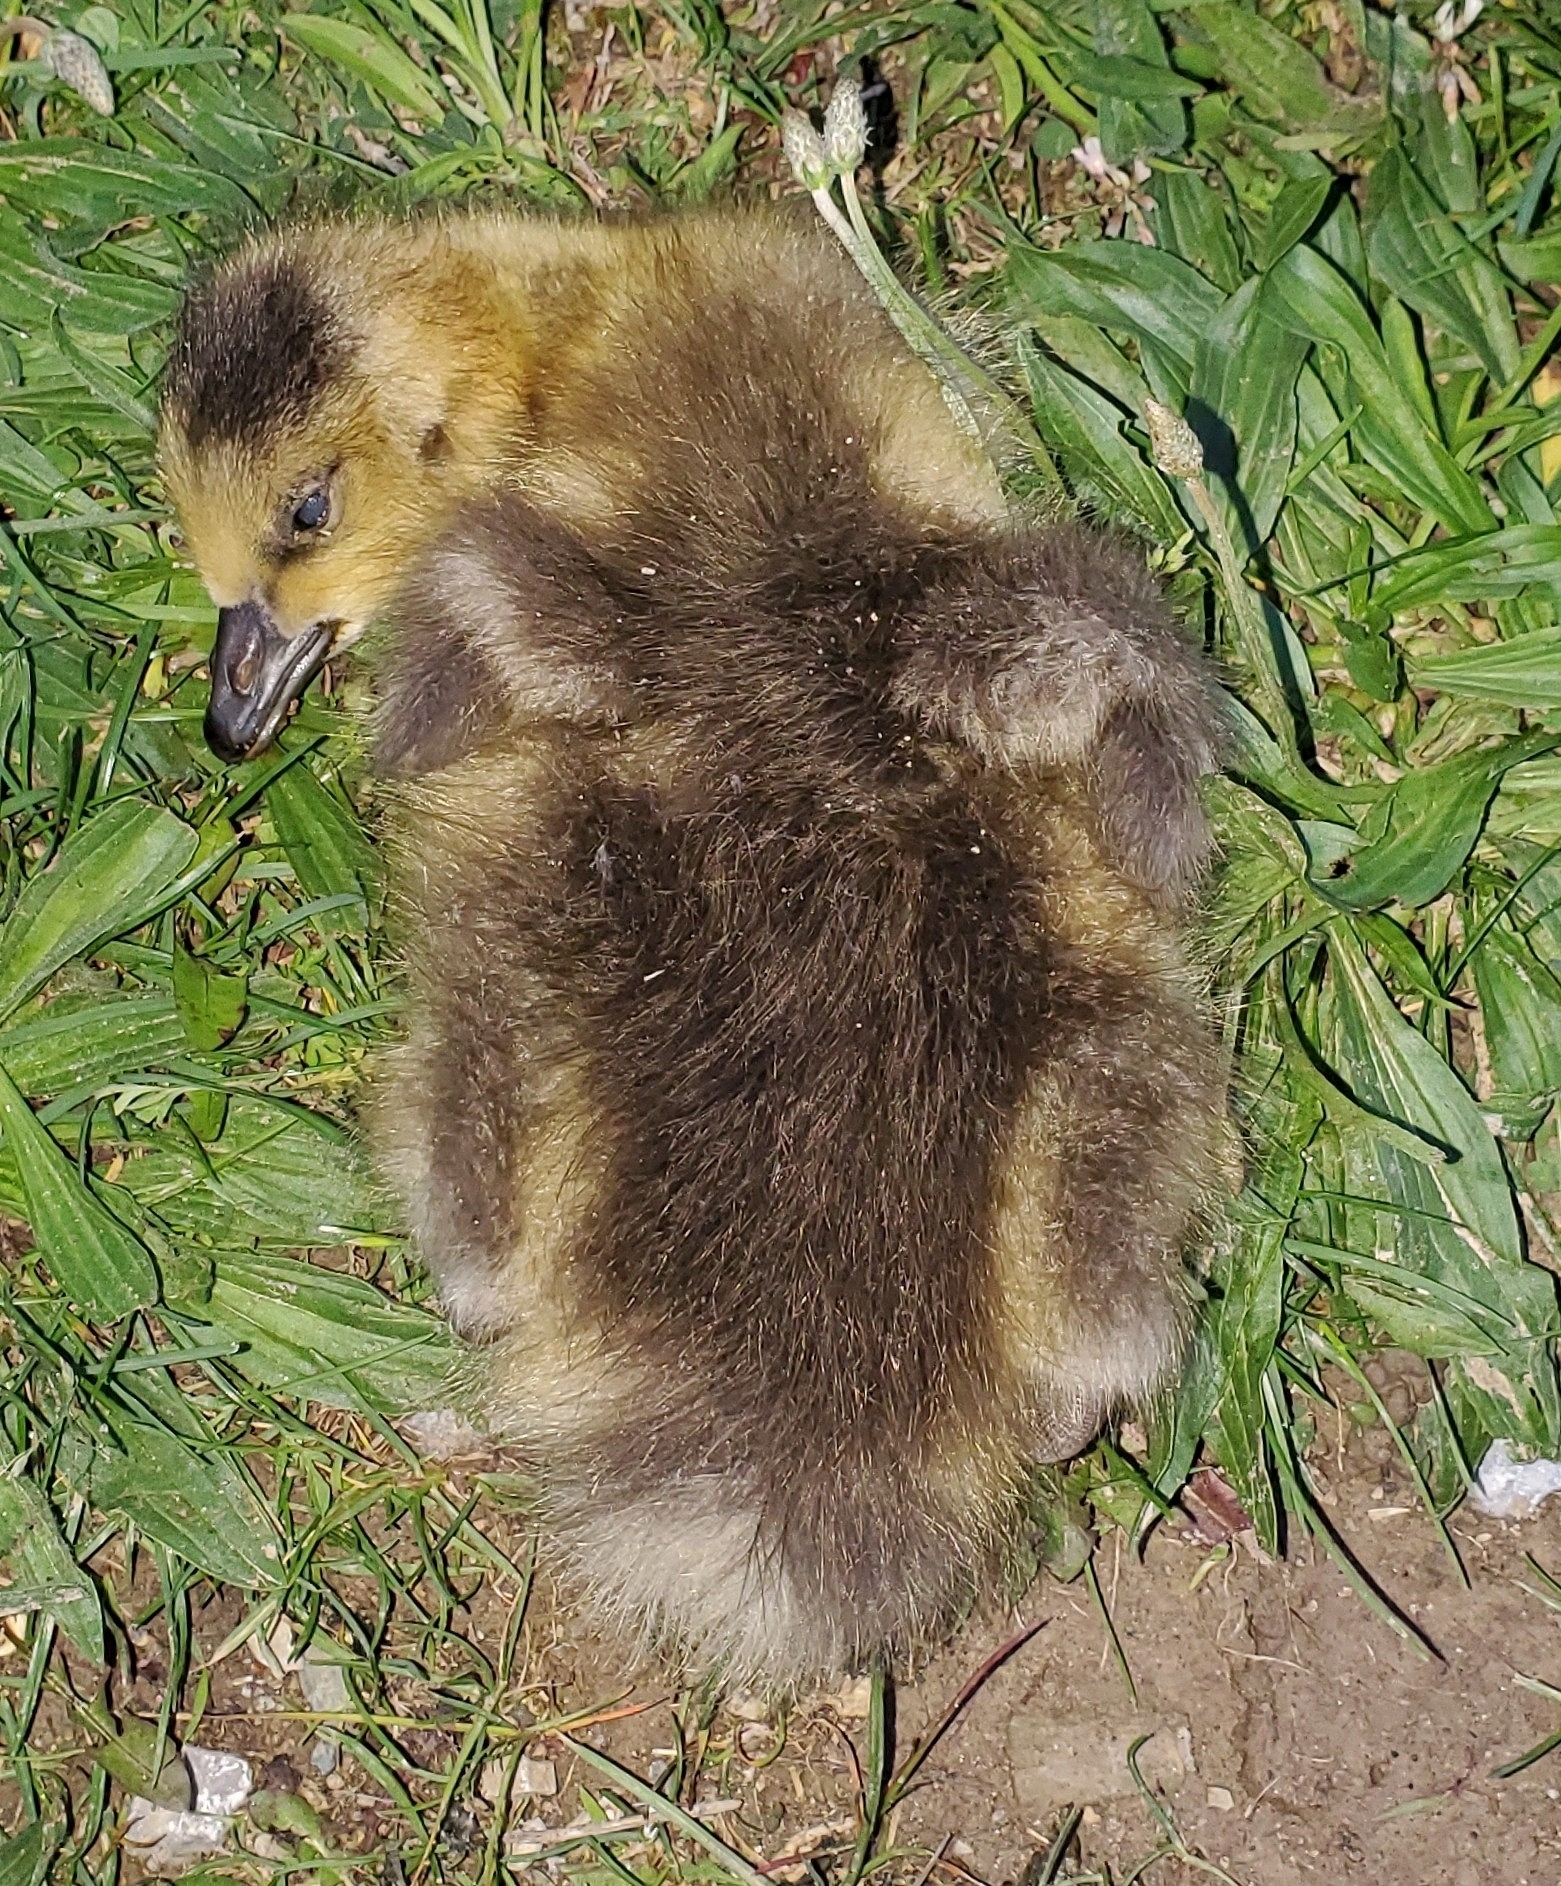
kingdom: Animalia
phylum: Chordata
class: Aves
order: Anseriformes
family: Anatidae
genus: Branta
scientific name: Branta canadensis
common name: Canada goose
